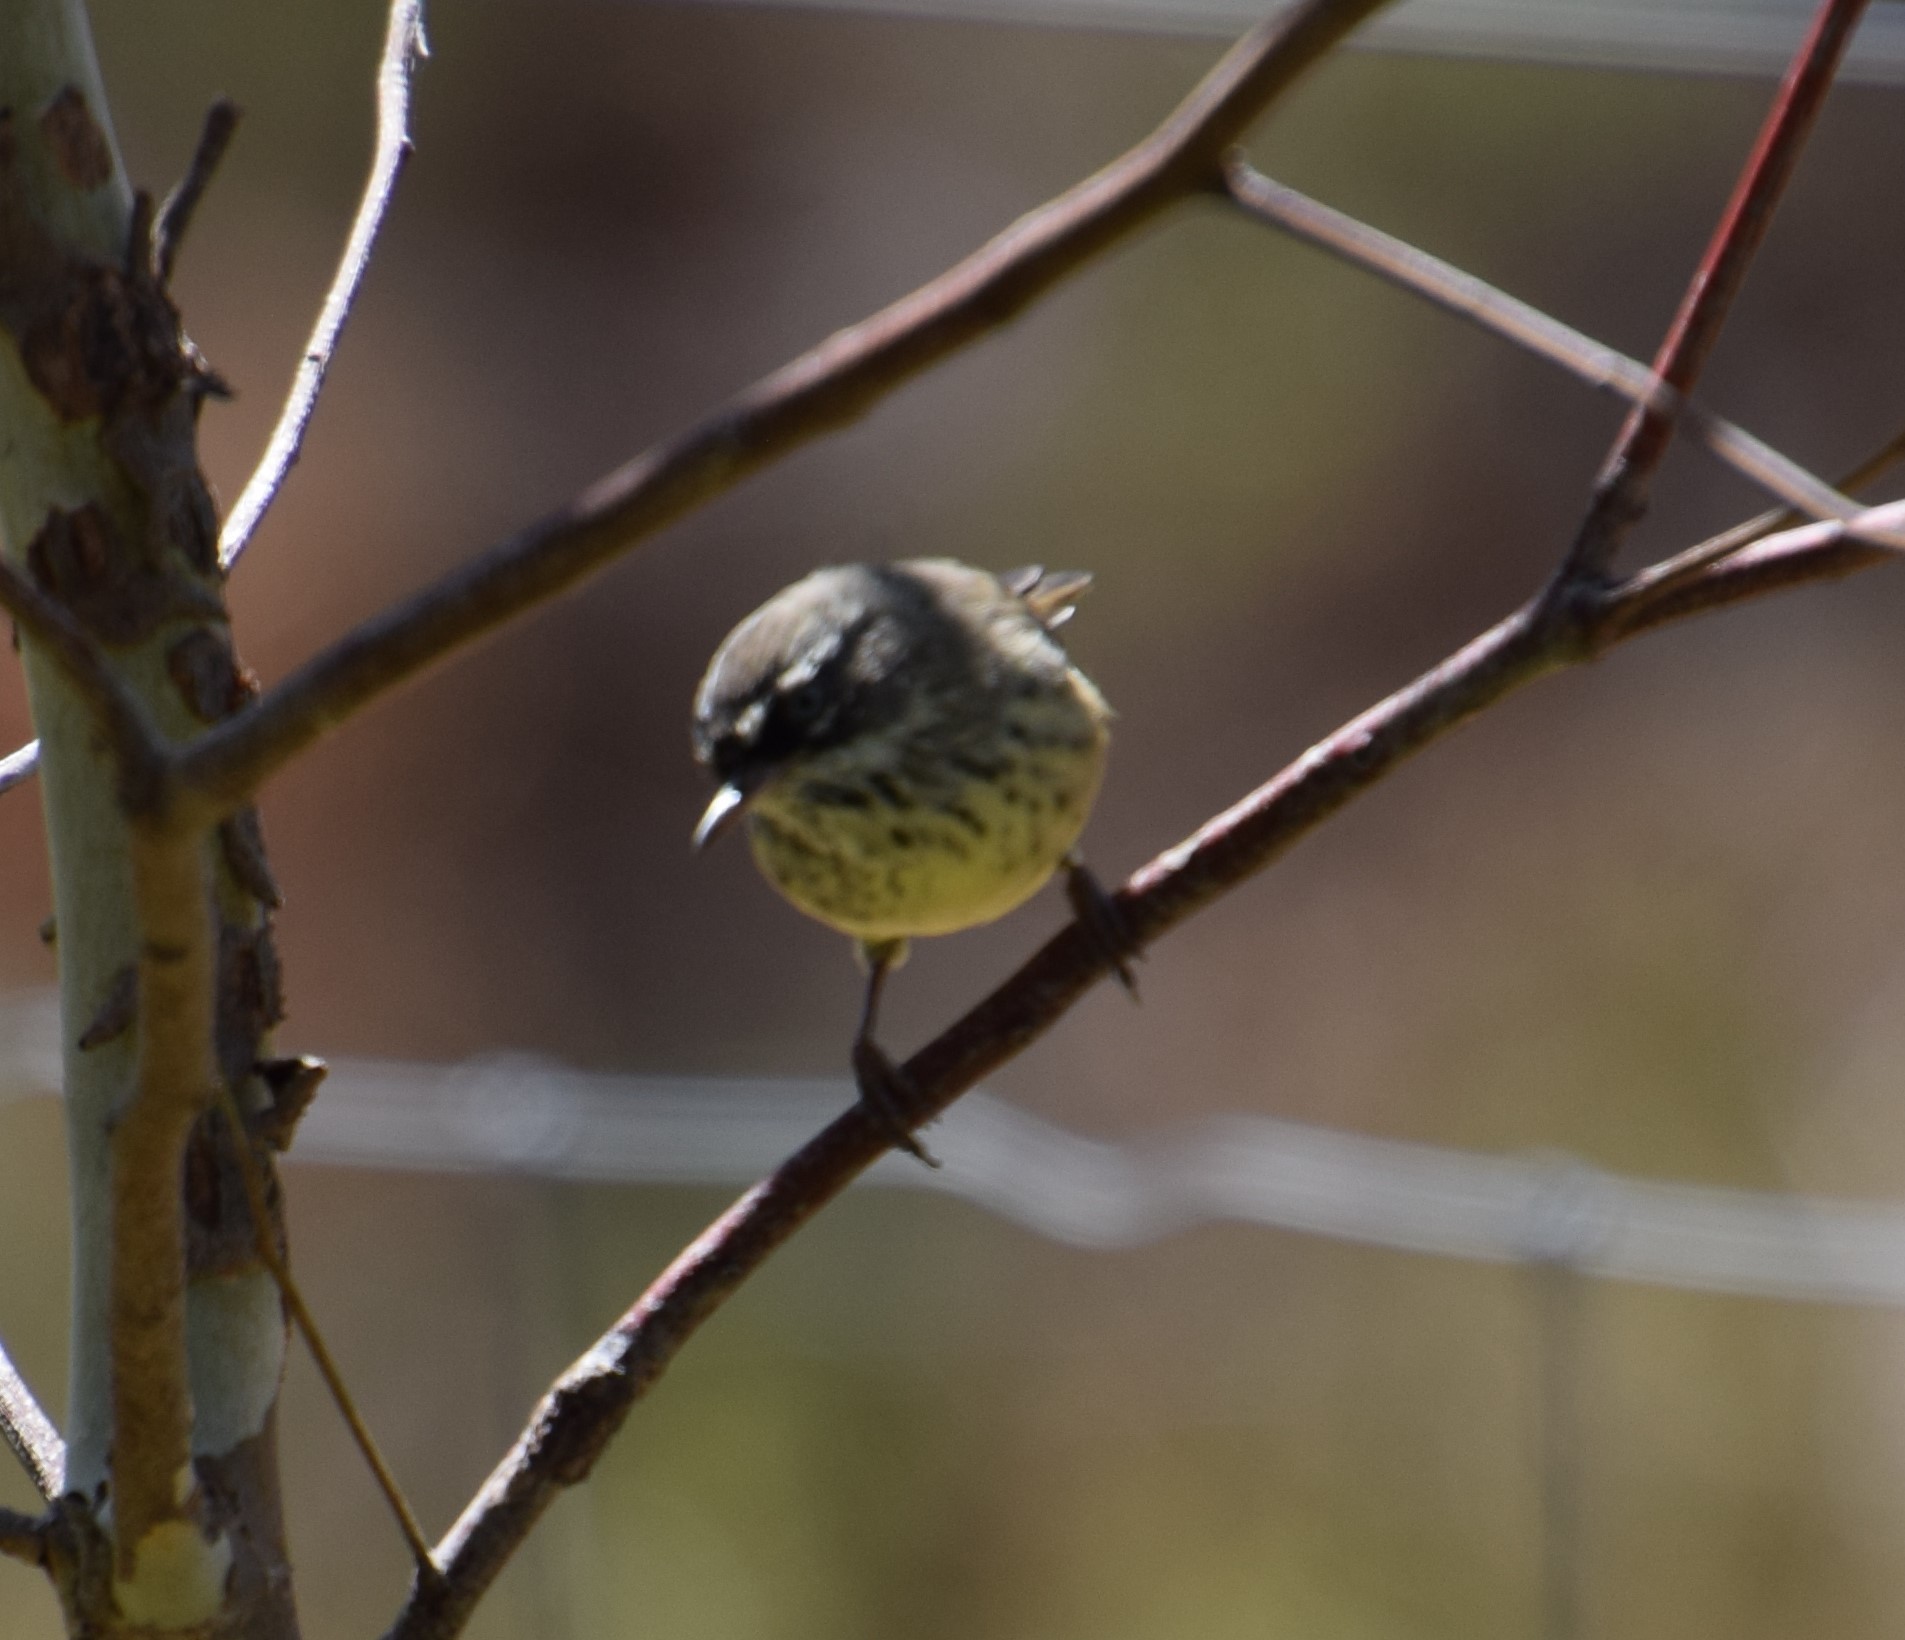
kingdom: Animalia
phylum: Chordata
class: Aves
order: Passeriformes
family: Acanthizidae
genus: Sericornis
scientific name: Sericornis maculatus
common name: Spotted scrubwren
